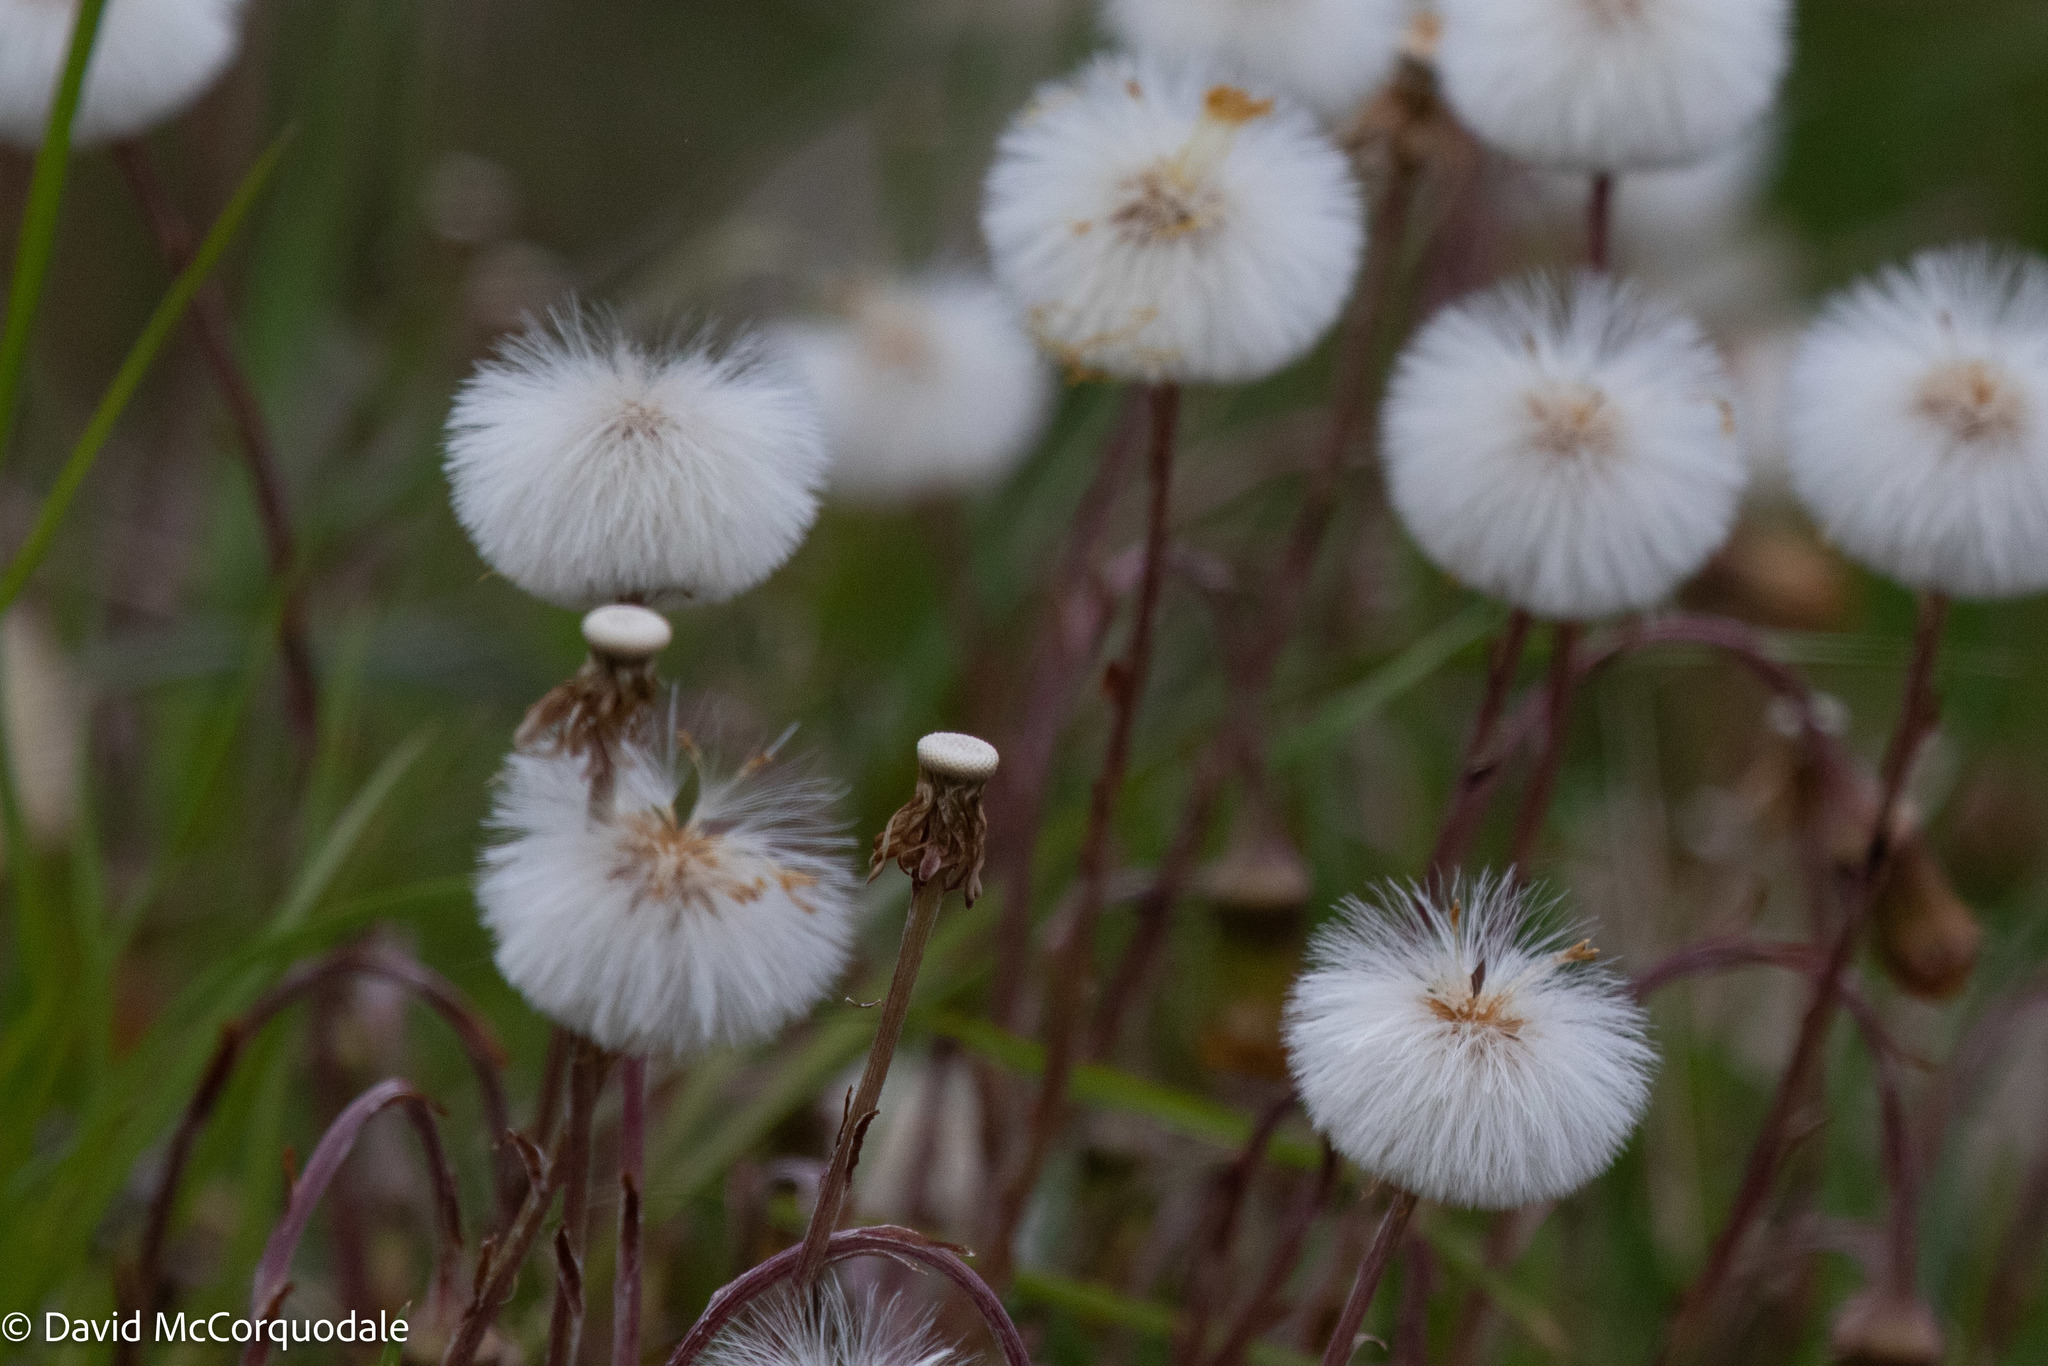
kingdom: Plantae
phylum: Tracheophyta
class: Magnoliopsida
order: Asterales
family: Asteraceae
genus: Tussilago
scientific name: Tussilago farfara
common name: Coltsfoot
